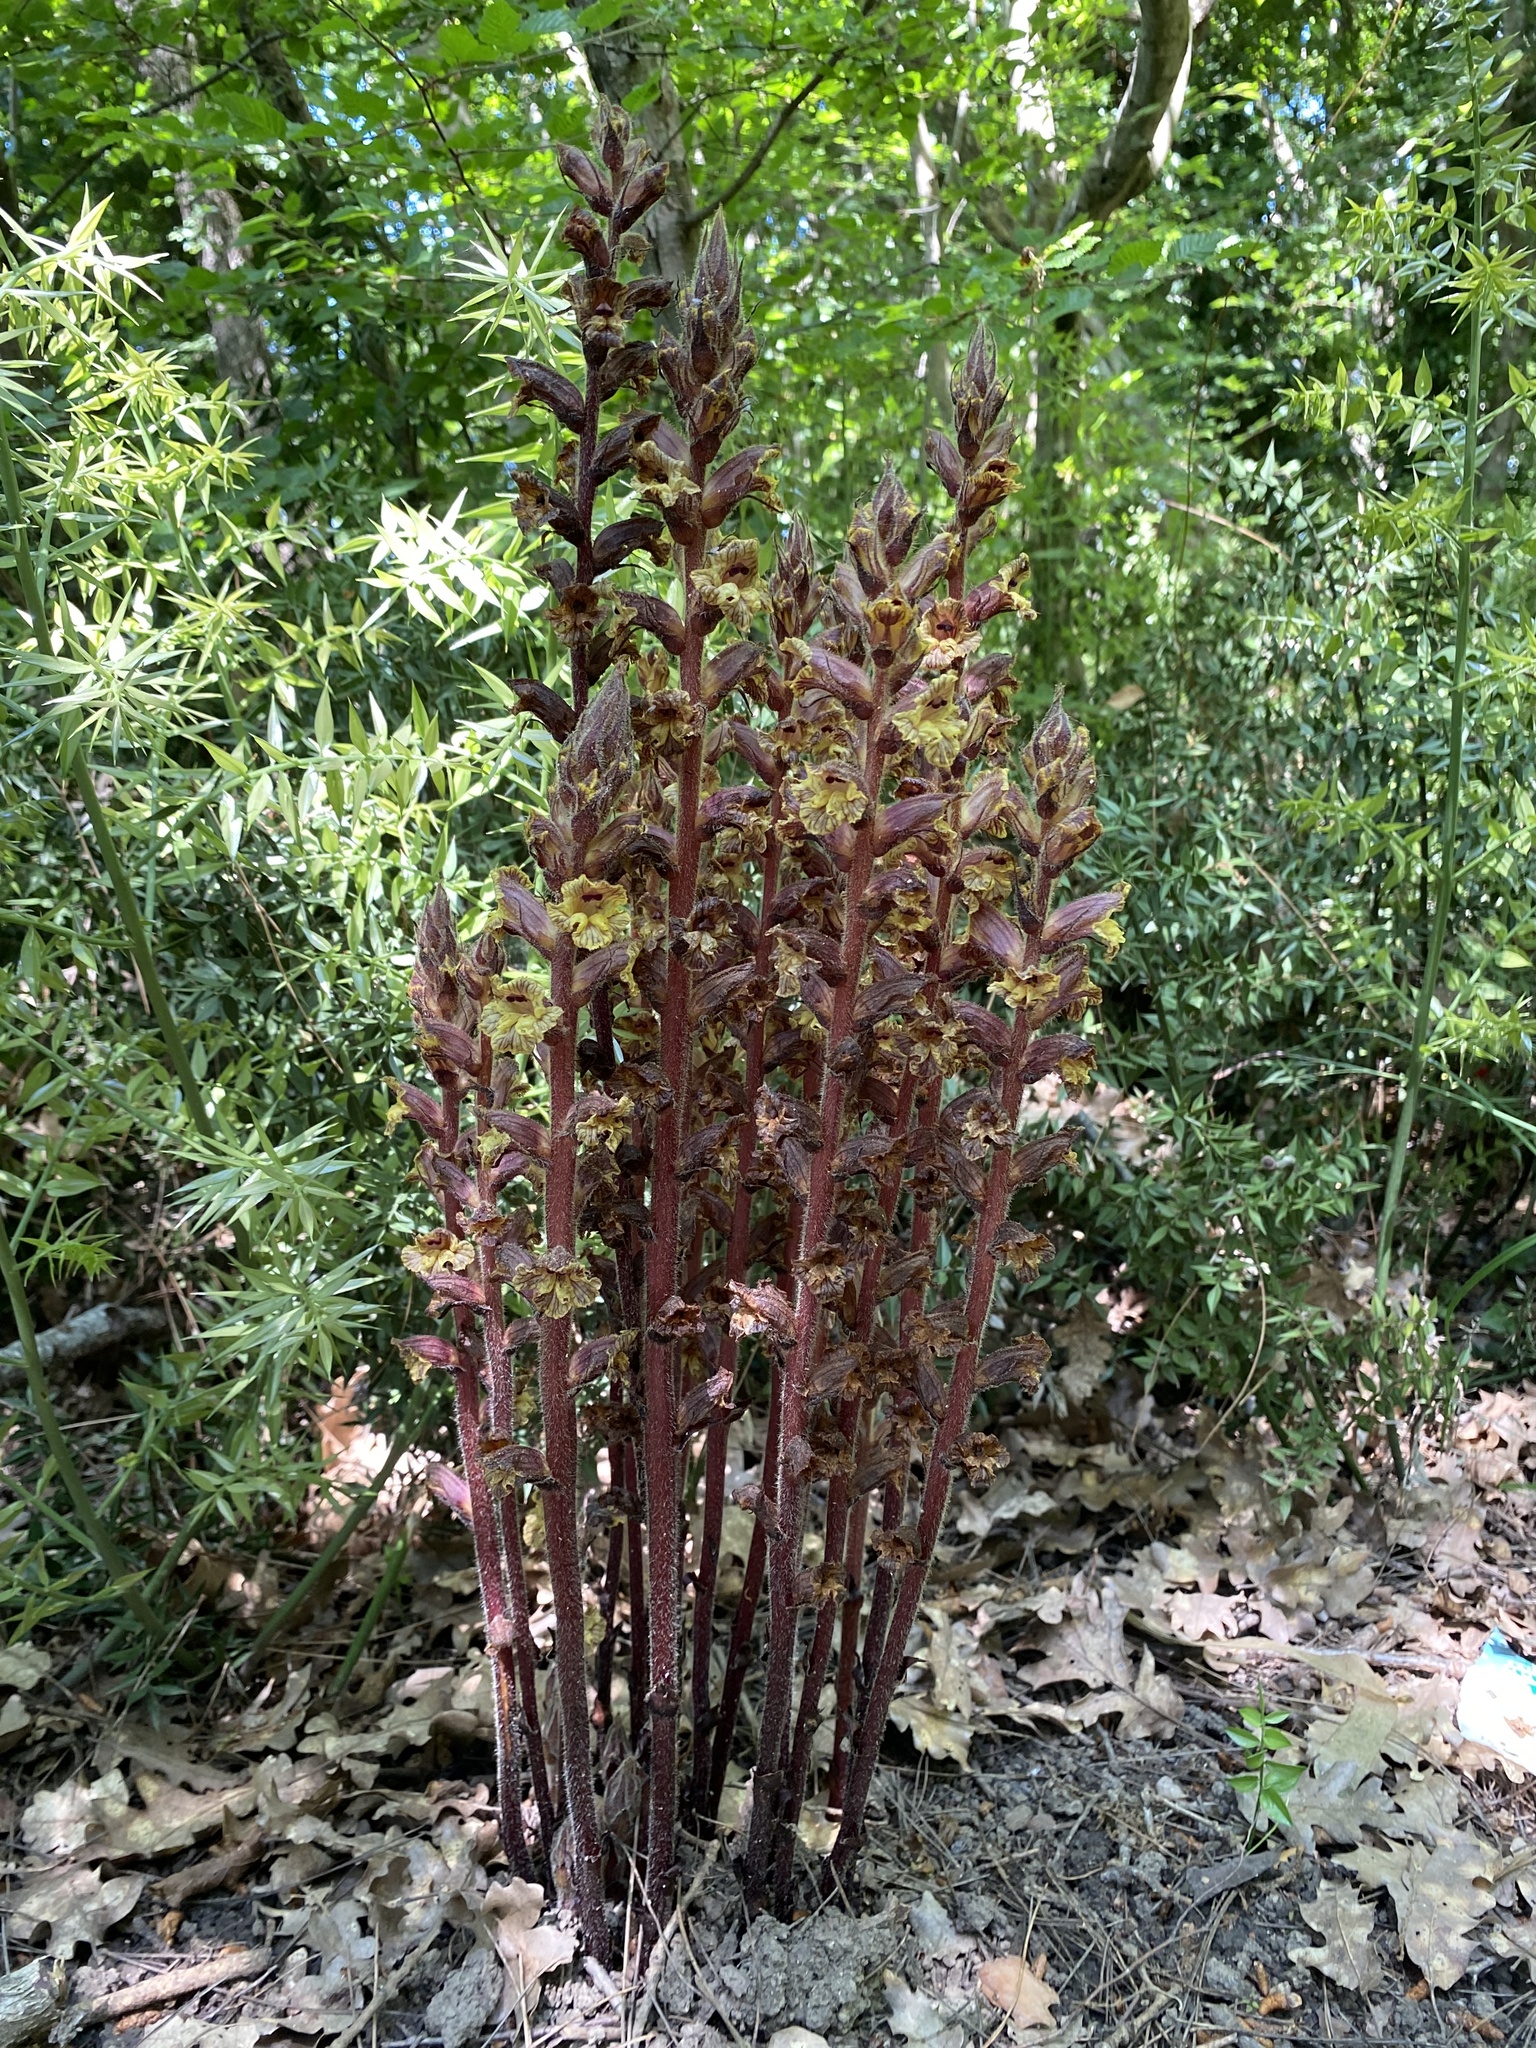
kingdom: Plantae
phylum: Tracheophyta
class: Magnoliopsida
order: Lamiales
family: Orobanchaceae
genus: Orobanche
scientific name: Orobanche laxissima
